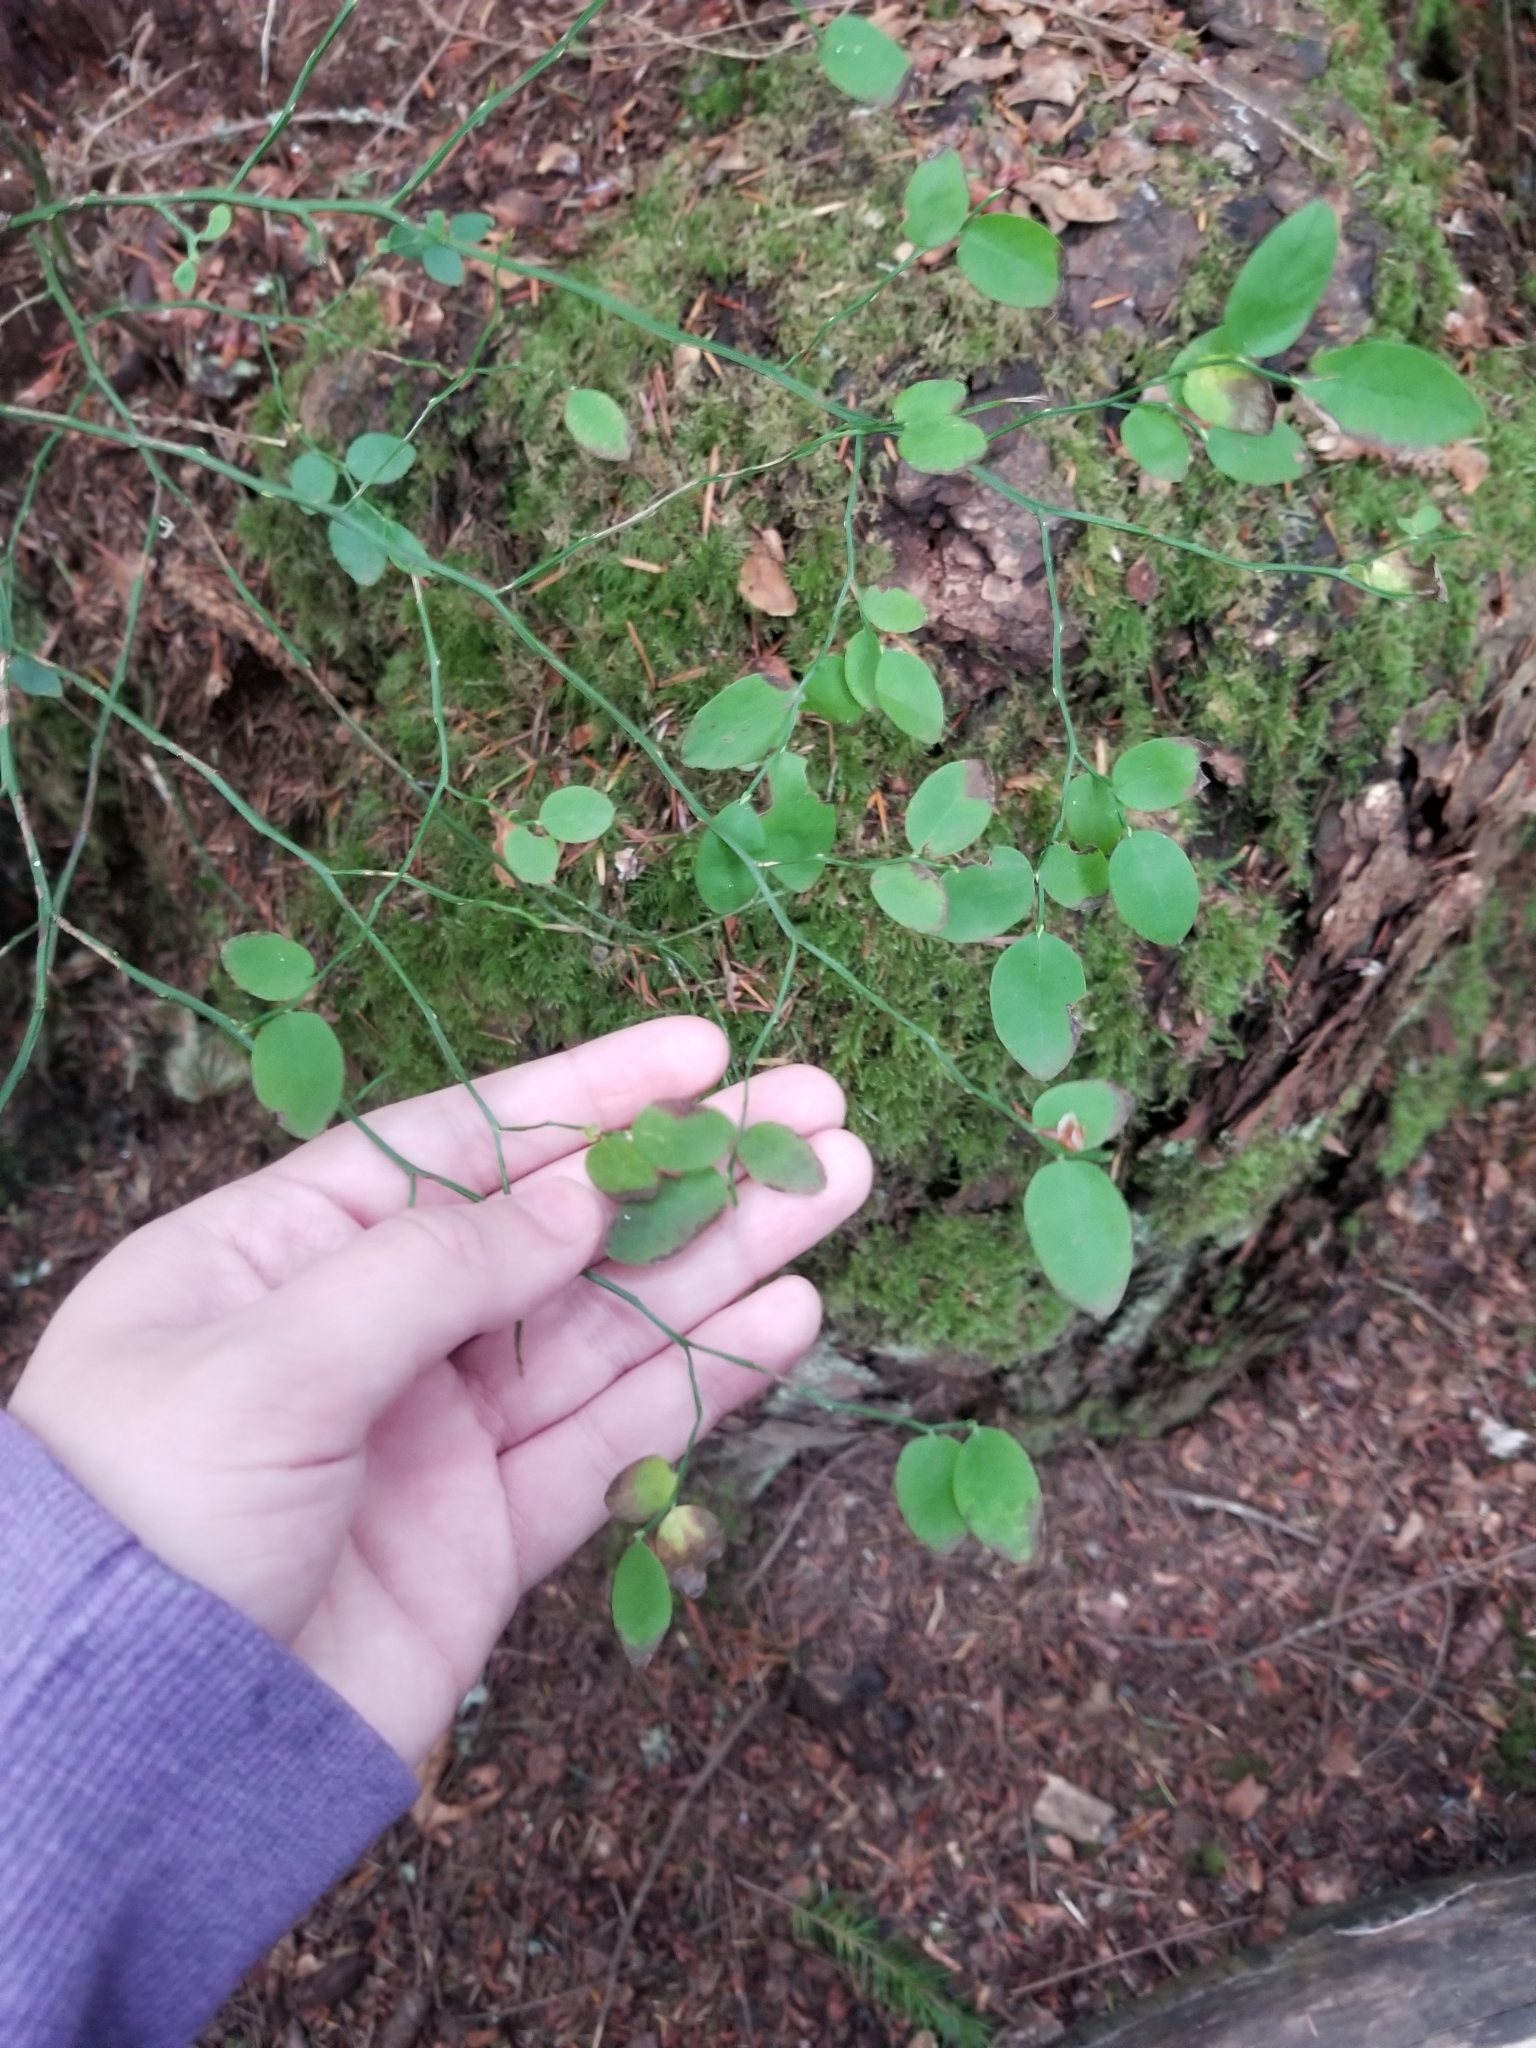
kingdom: Plantae
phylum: Tracheophyta
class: Magnoliopsida
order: Ericales
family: Ericaceae
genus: Vaccinium
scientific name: Vaccinium parvifolium
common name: Red-huckleberry
